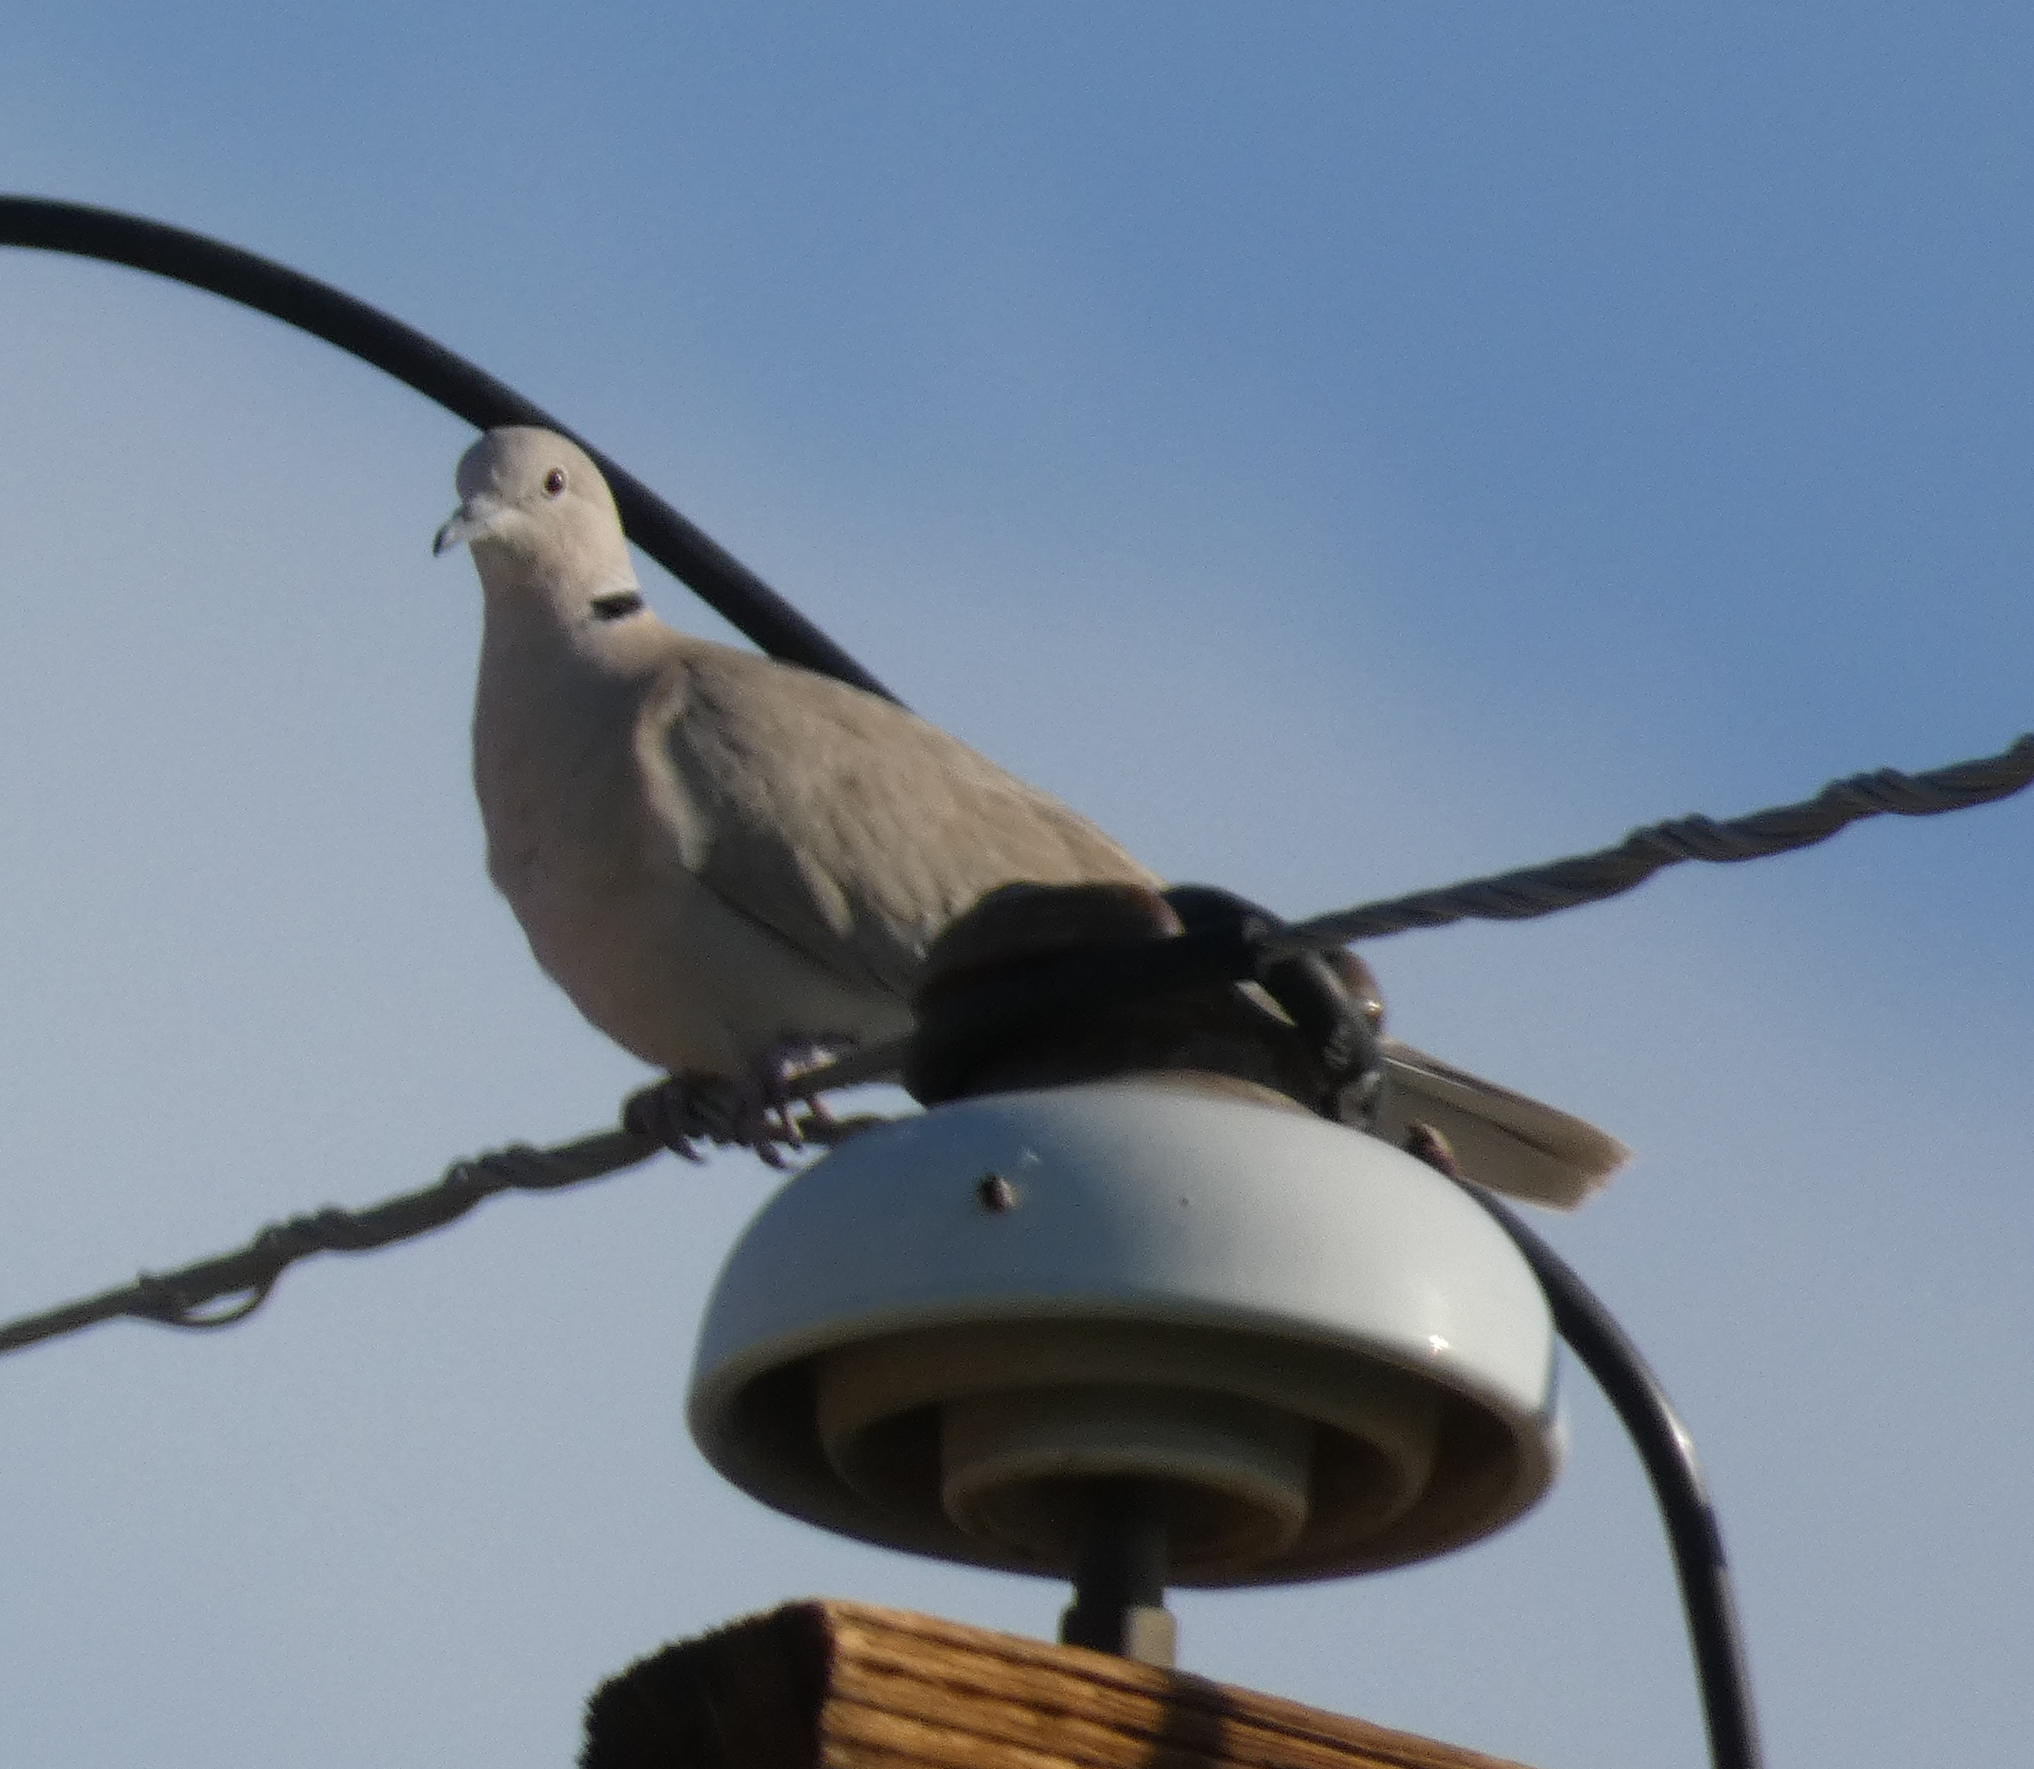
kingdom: Animalia
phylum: Chordata
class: Aves
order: Columbiformes
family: Columbidae
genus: Streptopelia
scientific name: Streptopelia decaocto
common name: Eurasian collared dove
